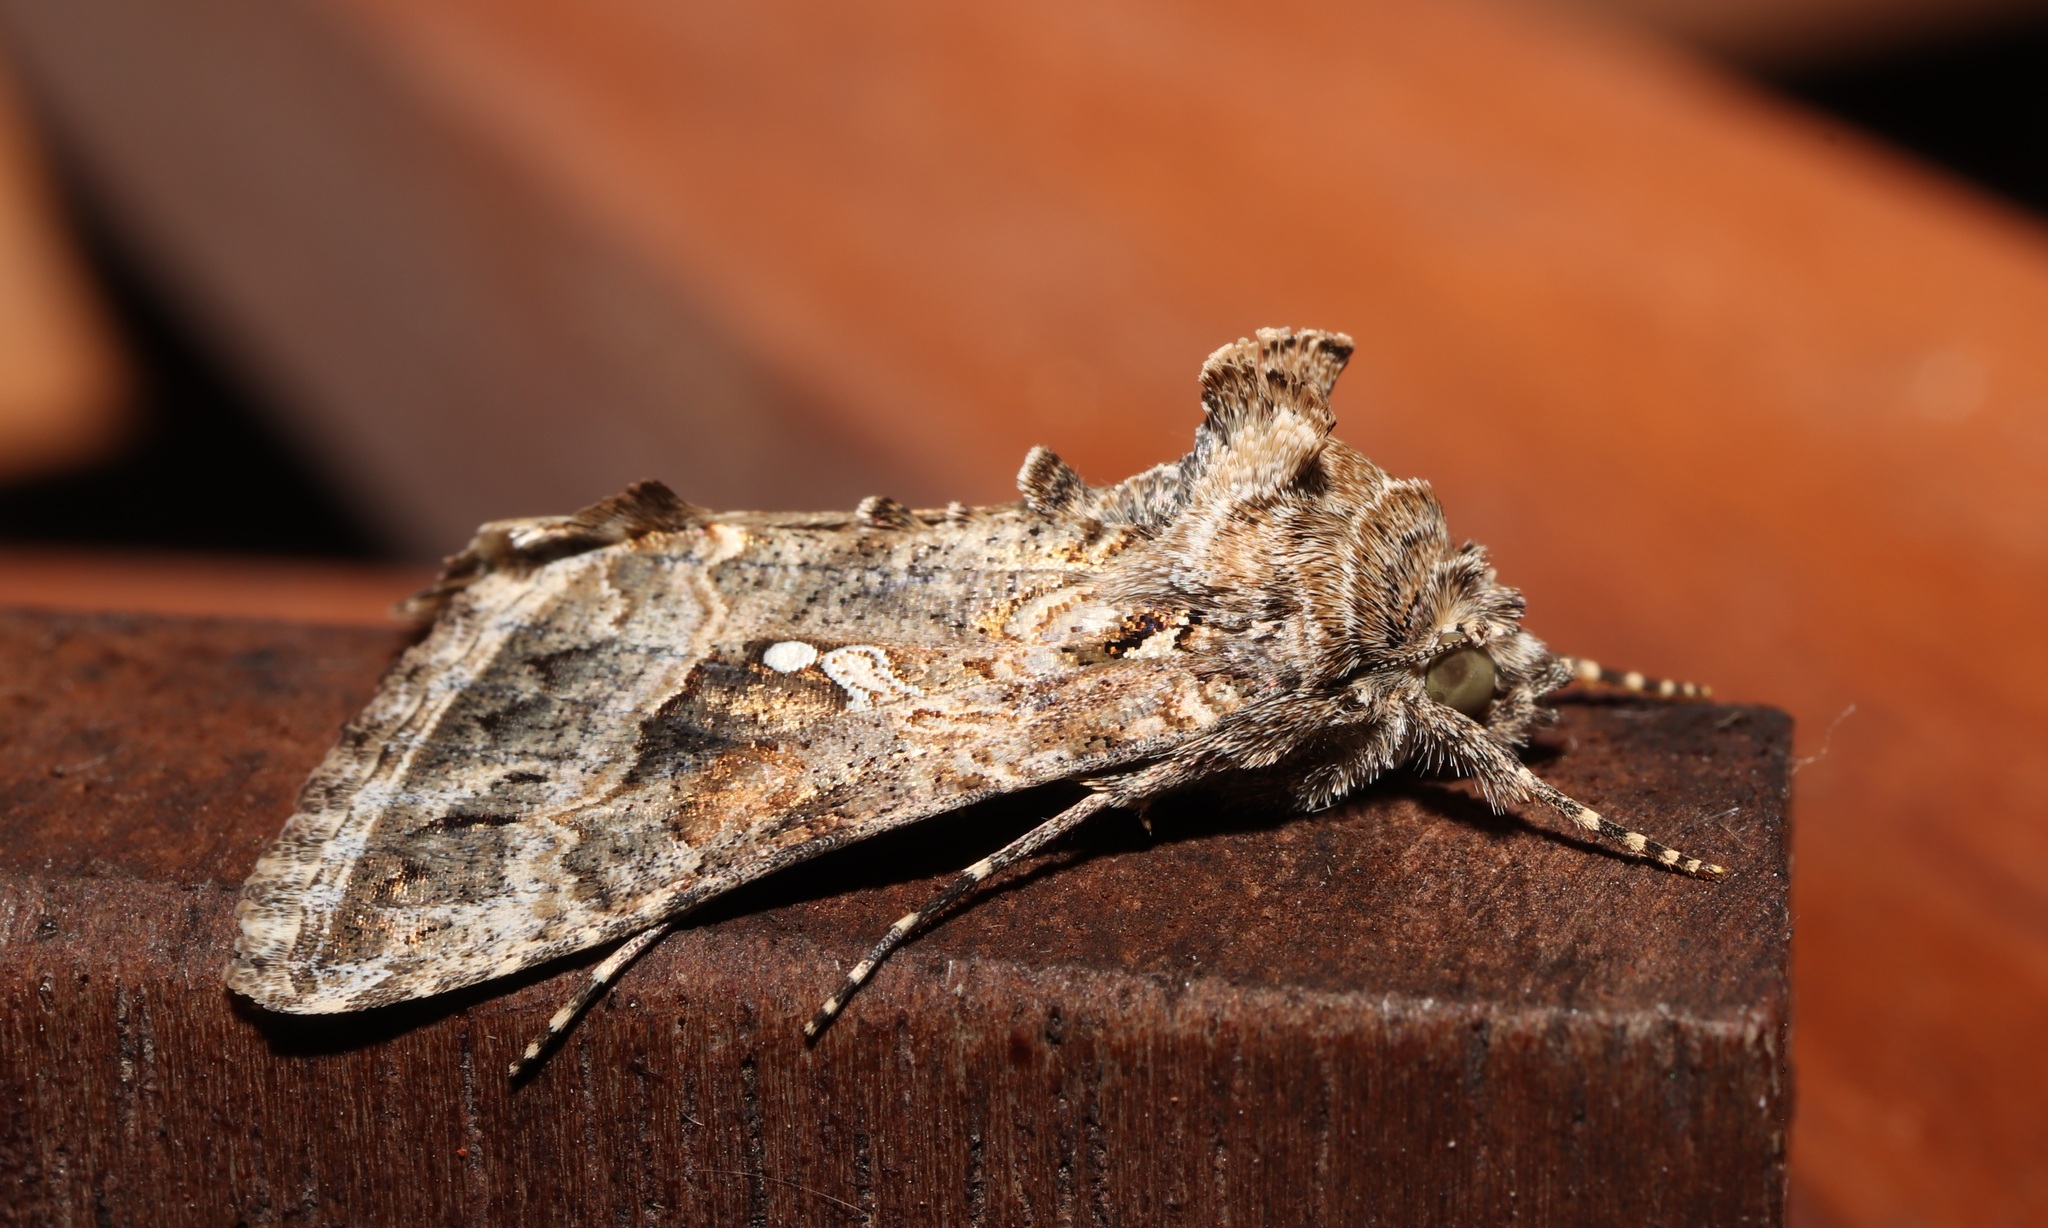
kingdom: Animalia
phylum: Arthropoda
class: Insecta
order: Lepidoptera
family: Noctuidae
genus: Trichoplusia
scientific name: Trichoplusia ni
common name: Ni moth
